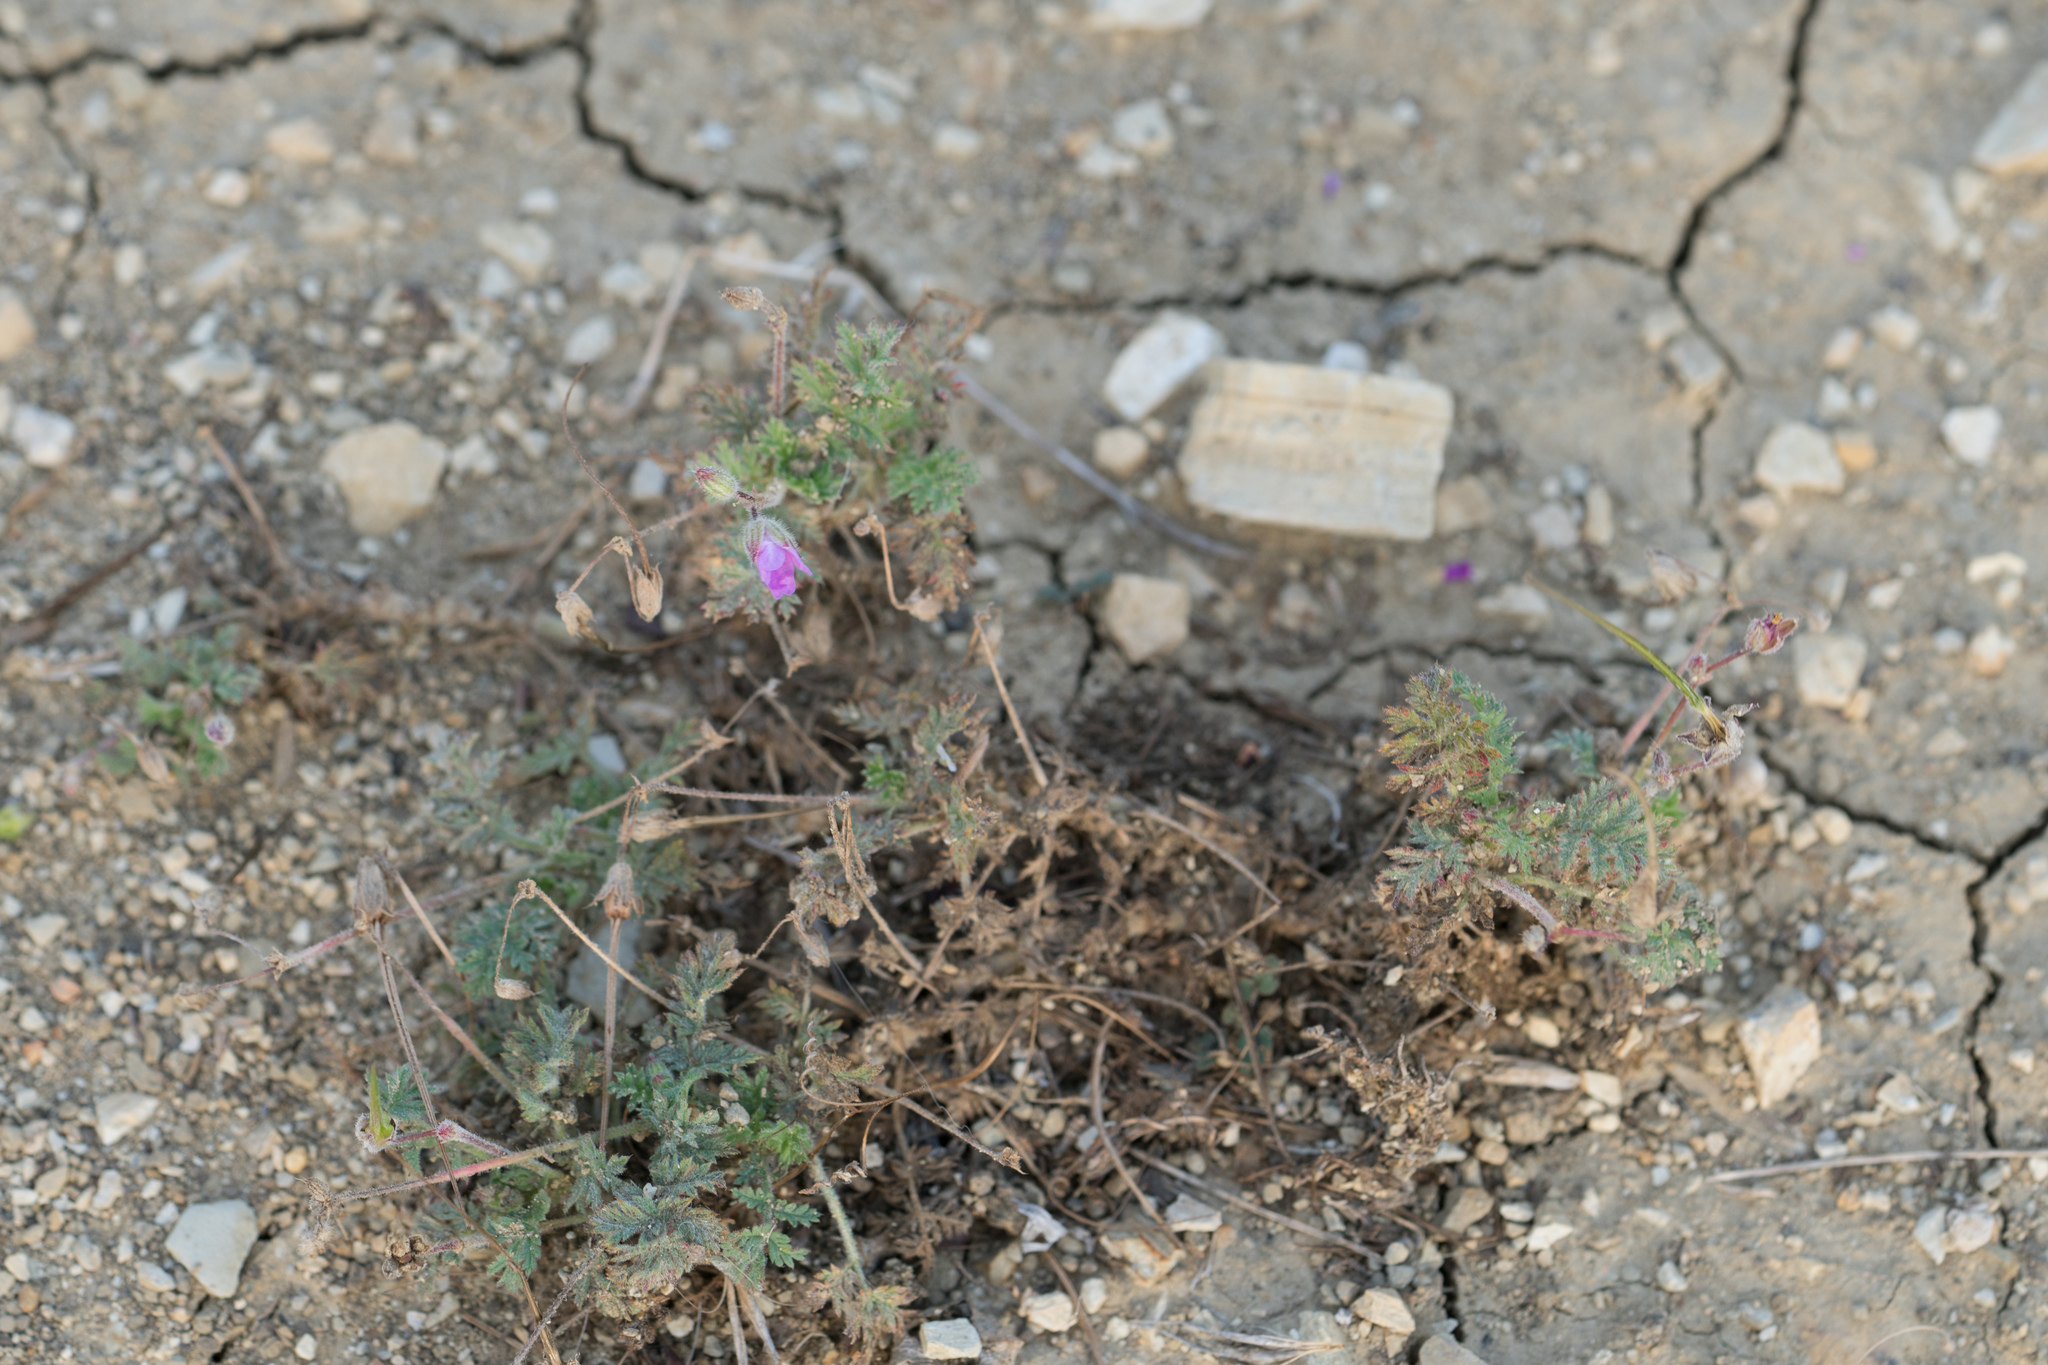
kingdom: Plantae
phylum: Tracheophyta
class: Magnoliopsida
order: Geraniales
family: Geraniaceae
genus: Erodium
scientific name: Erodium cicutarium
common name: Common stork's-bill
